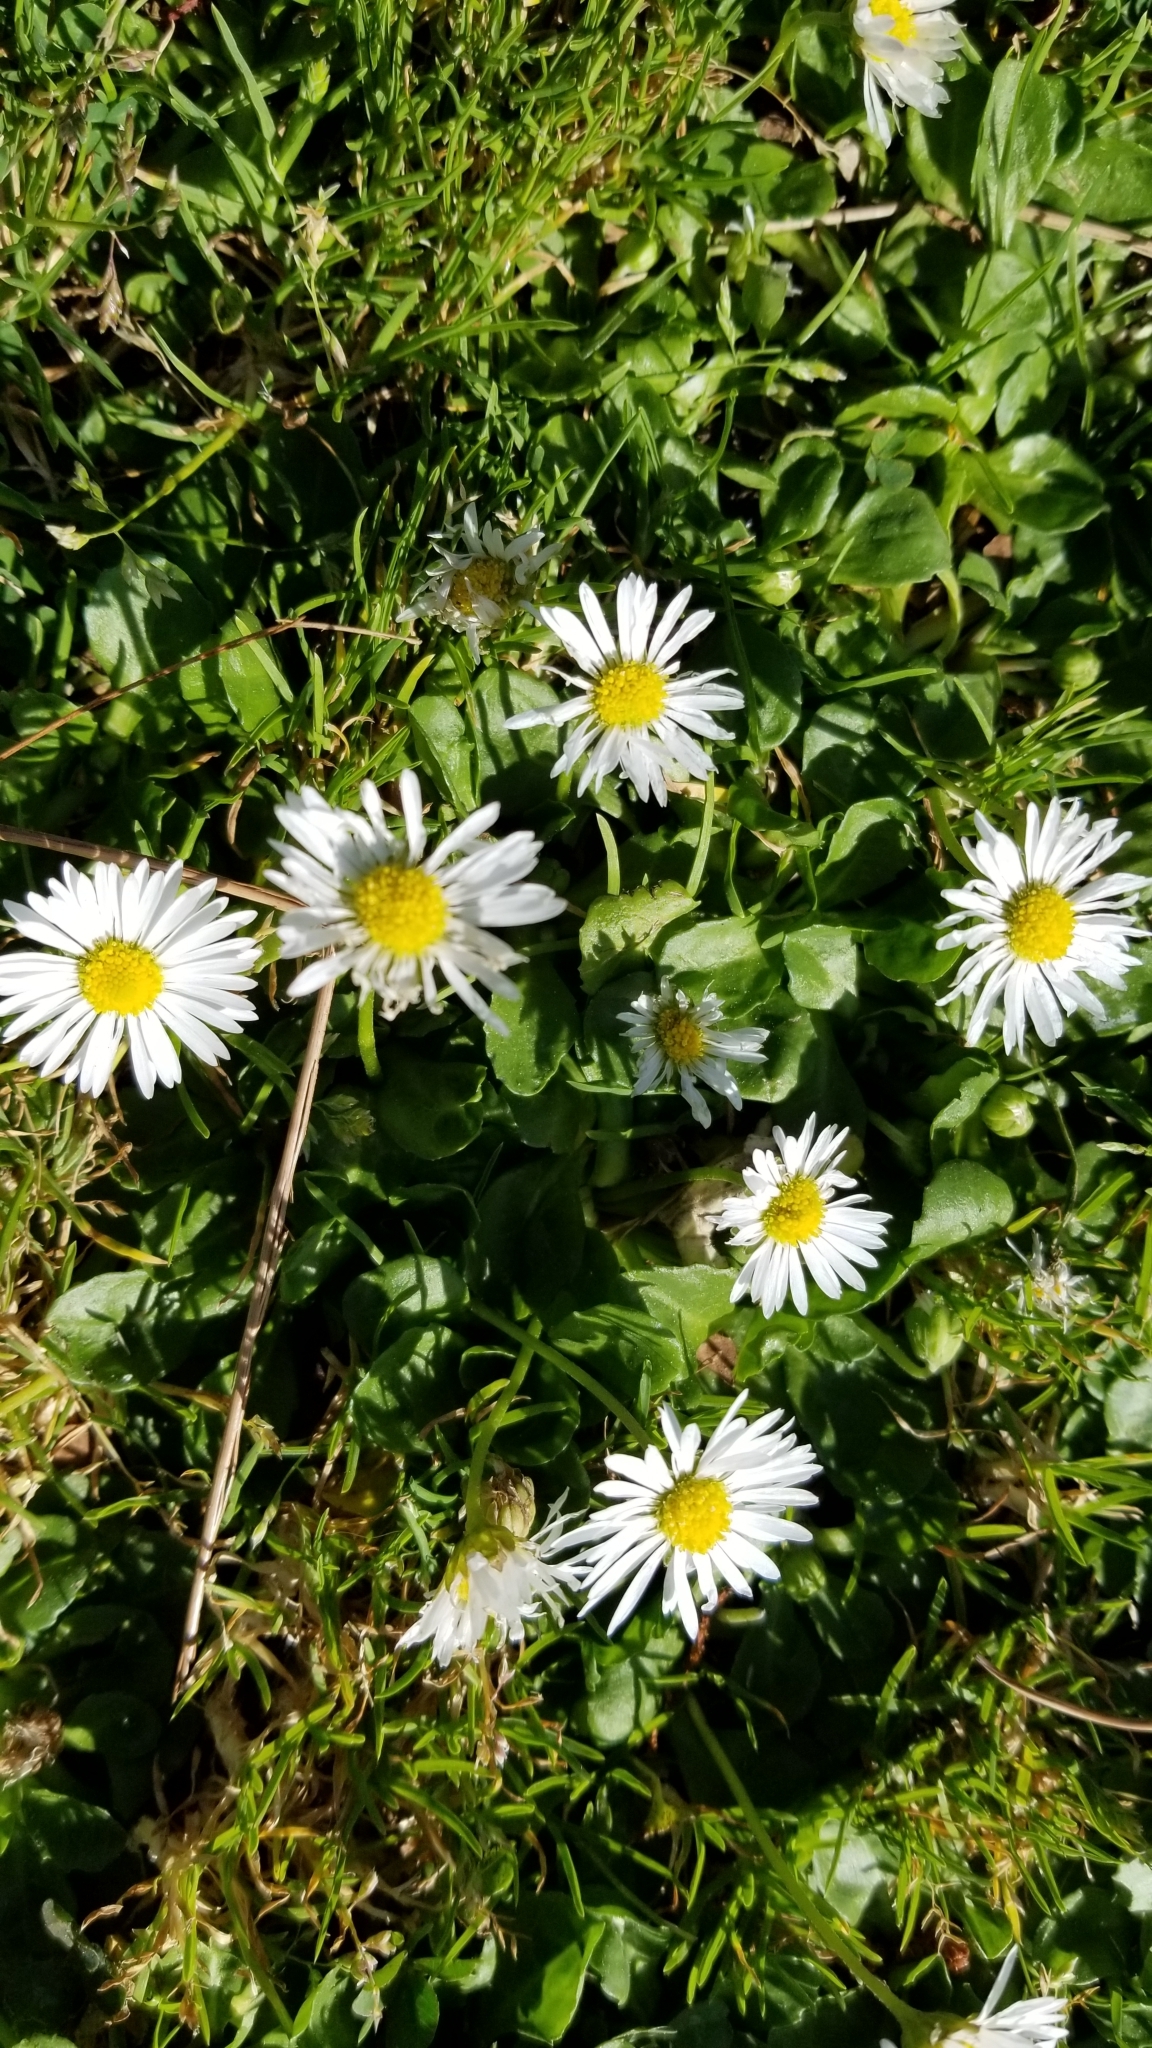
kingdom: Plantae
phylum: Tracheophyta
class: Magnoliopsida
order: Asterales
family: Asteraceae
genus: Bellis
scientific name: Bellis perennis
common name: Lawndaisy
